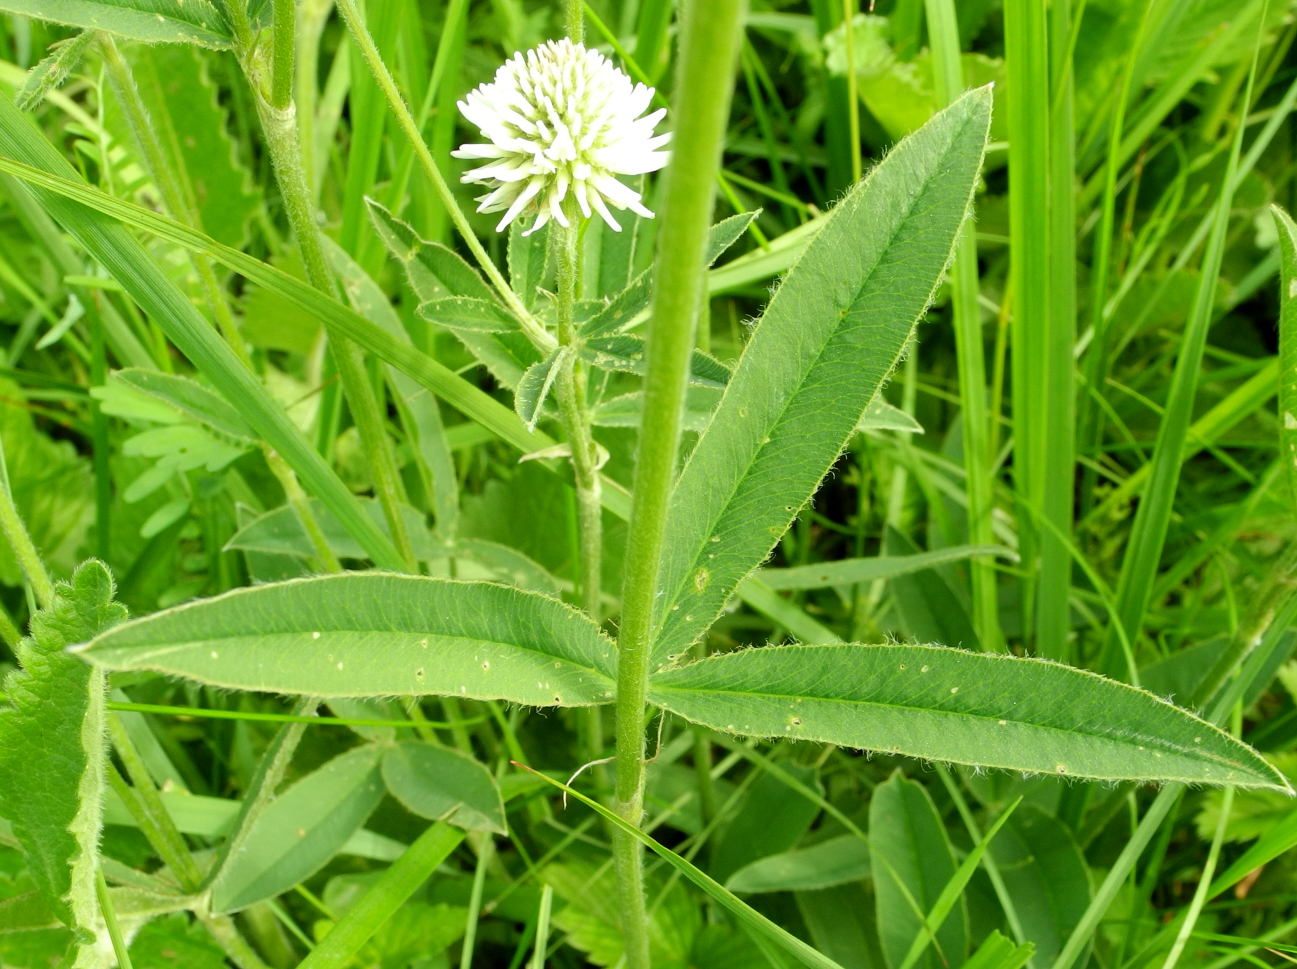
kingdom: Plantae
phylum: Tracheophyta
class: Magnoliopsida
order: Fabales
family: Fabaceae
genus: Trifolium
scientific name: Trifolium montanum
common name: Mountain clover
